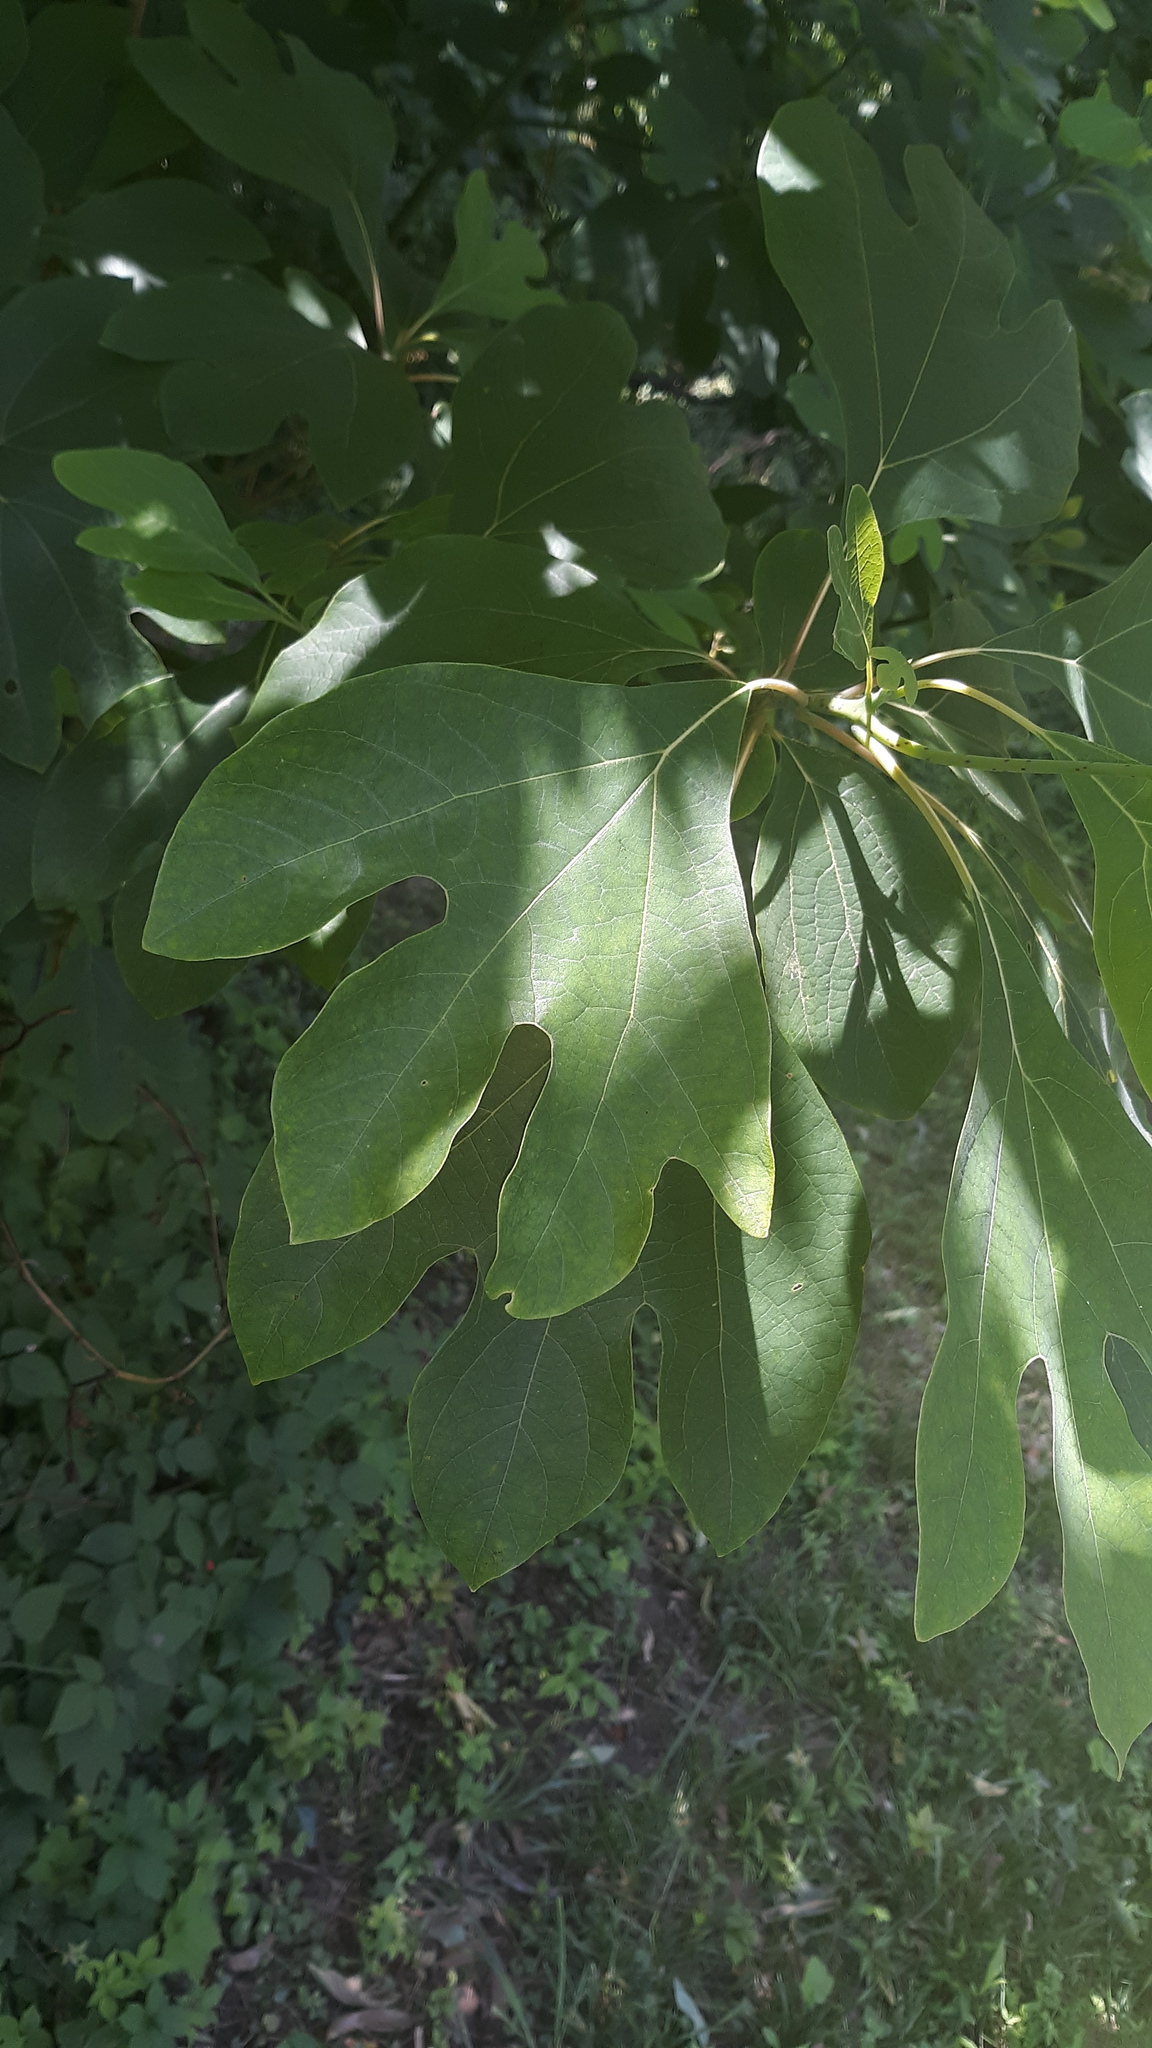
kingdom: Plantae
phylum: Tracheophyta
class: Magnoliopsida
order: Laurales
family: Lauraceae
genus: Sassafras
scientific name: Sassafras albidum
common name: Sassafras
